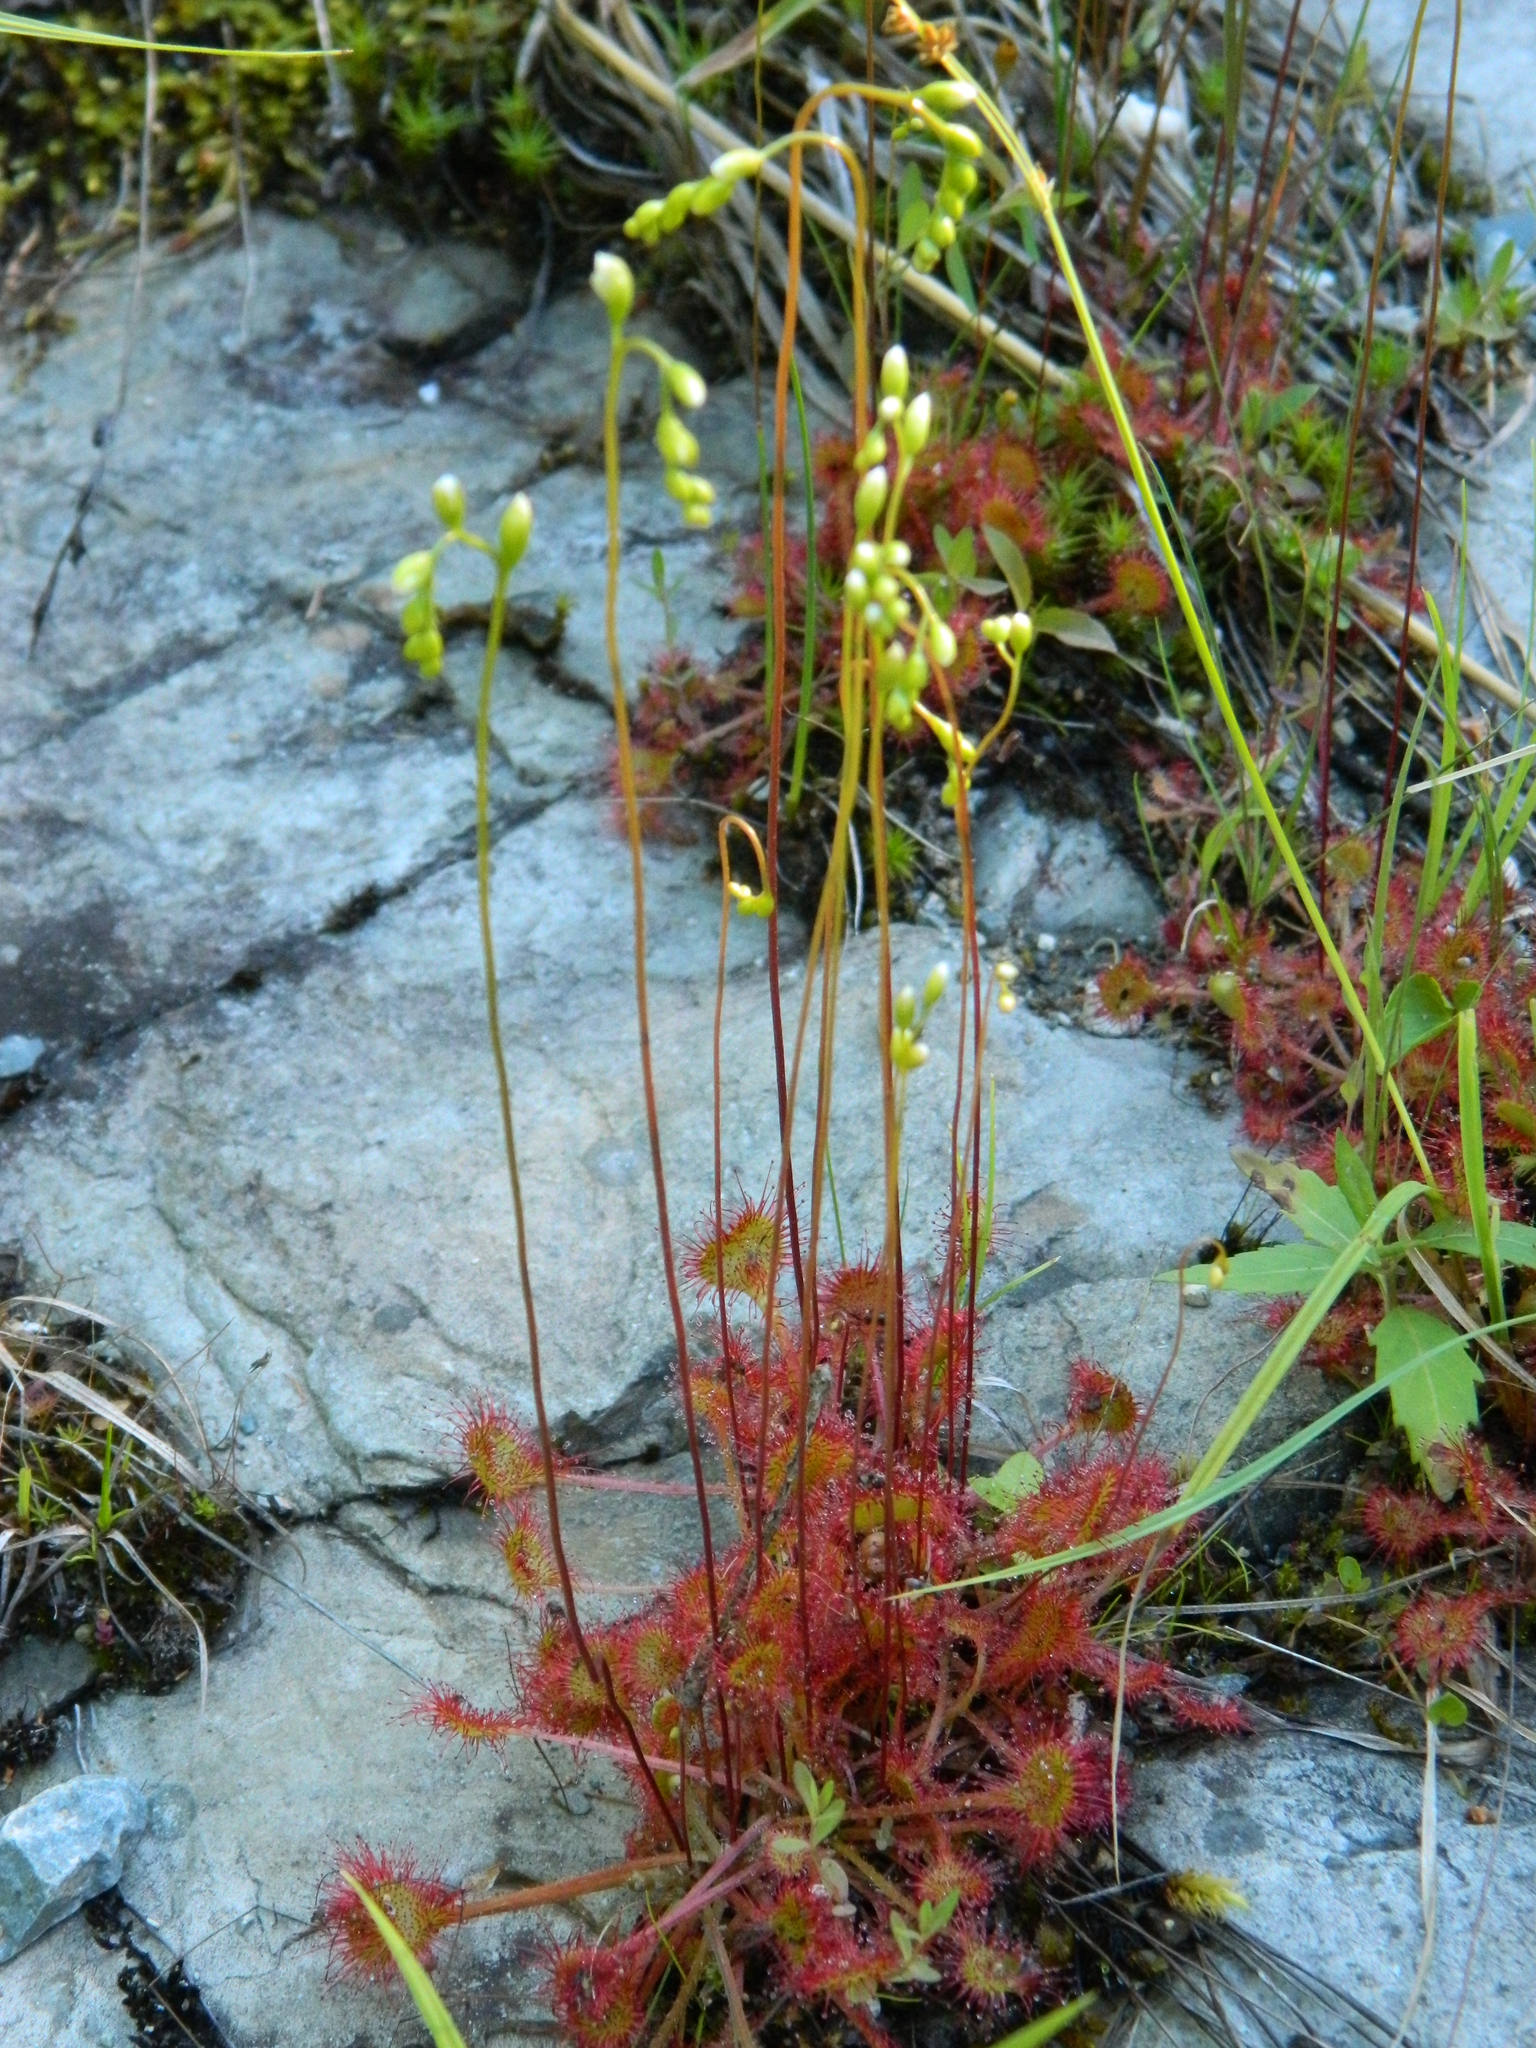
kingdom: Plantae
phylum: Tracheophyta
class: Magnoliopsida
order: Caryophyllales
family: Droseraceae
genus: Drosera
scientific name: Drosera rotundifolia
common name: Round-leaved sundew
